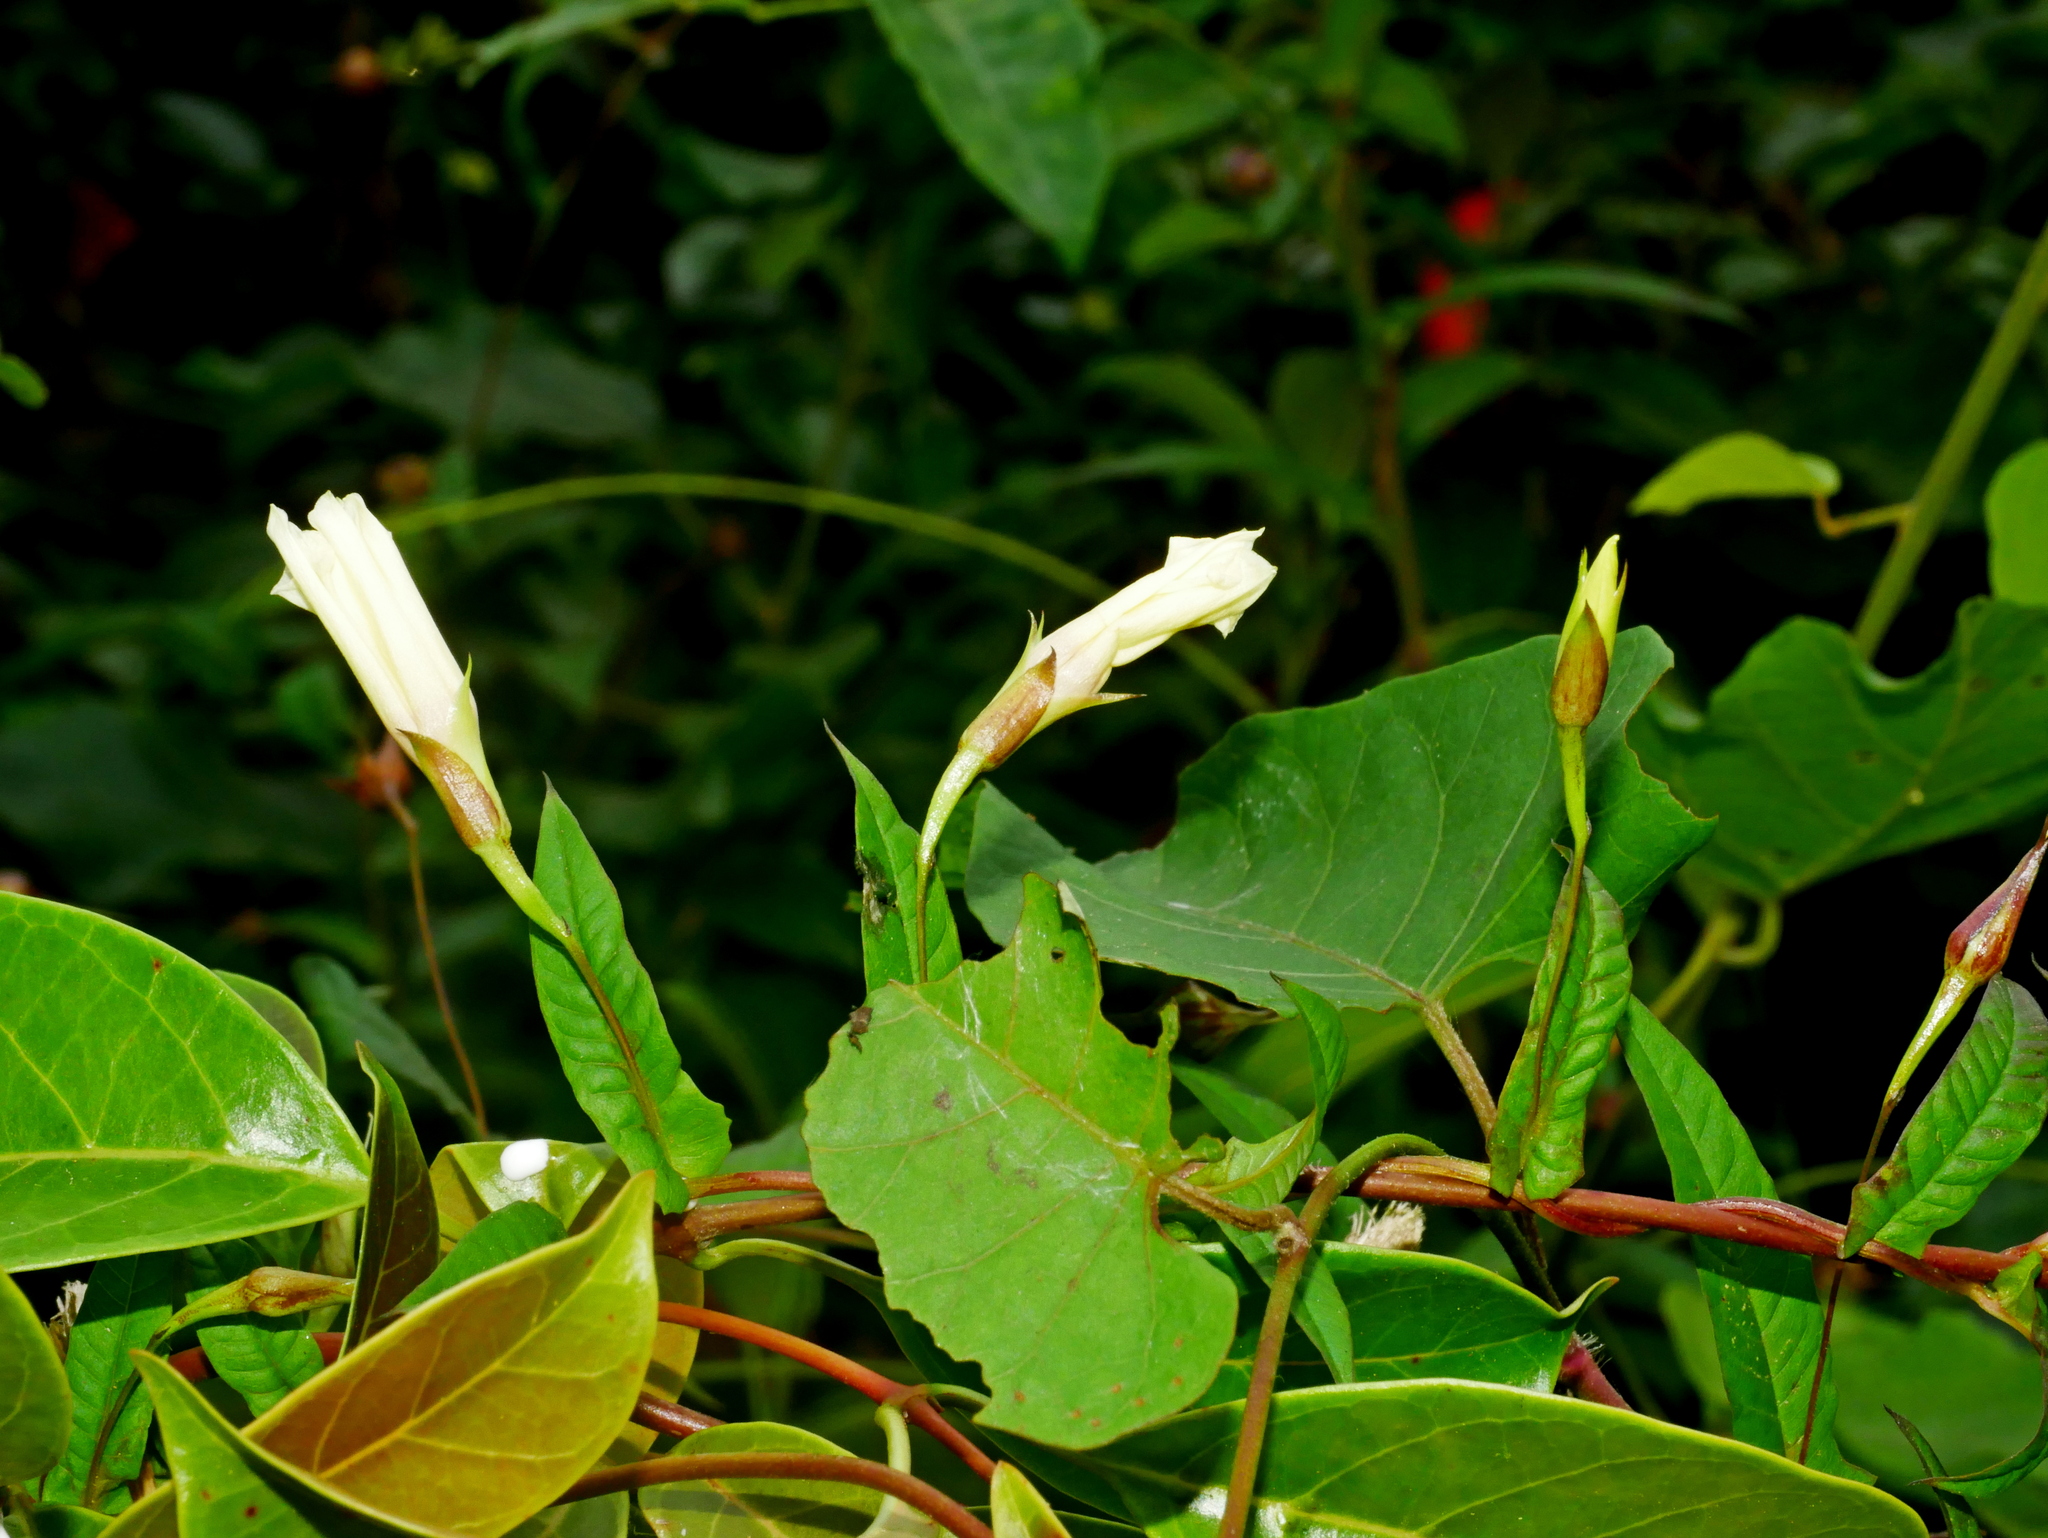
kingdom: Plantae
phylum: Tracheophyta
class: Magnoliopsida
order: Solanales
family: Convolvulaceae
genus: Xenostegia
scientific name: Xenostegia tridentata
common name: African morningvine
